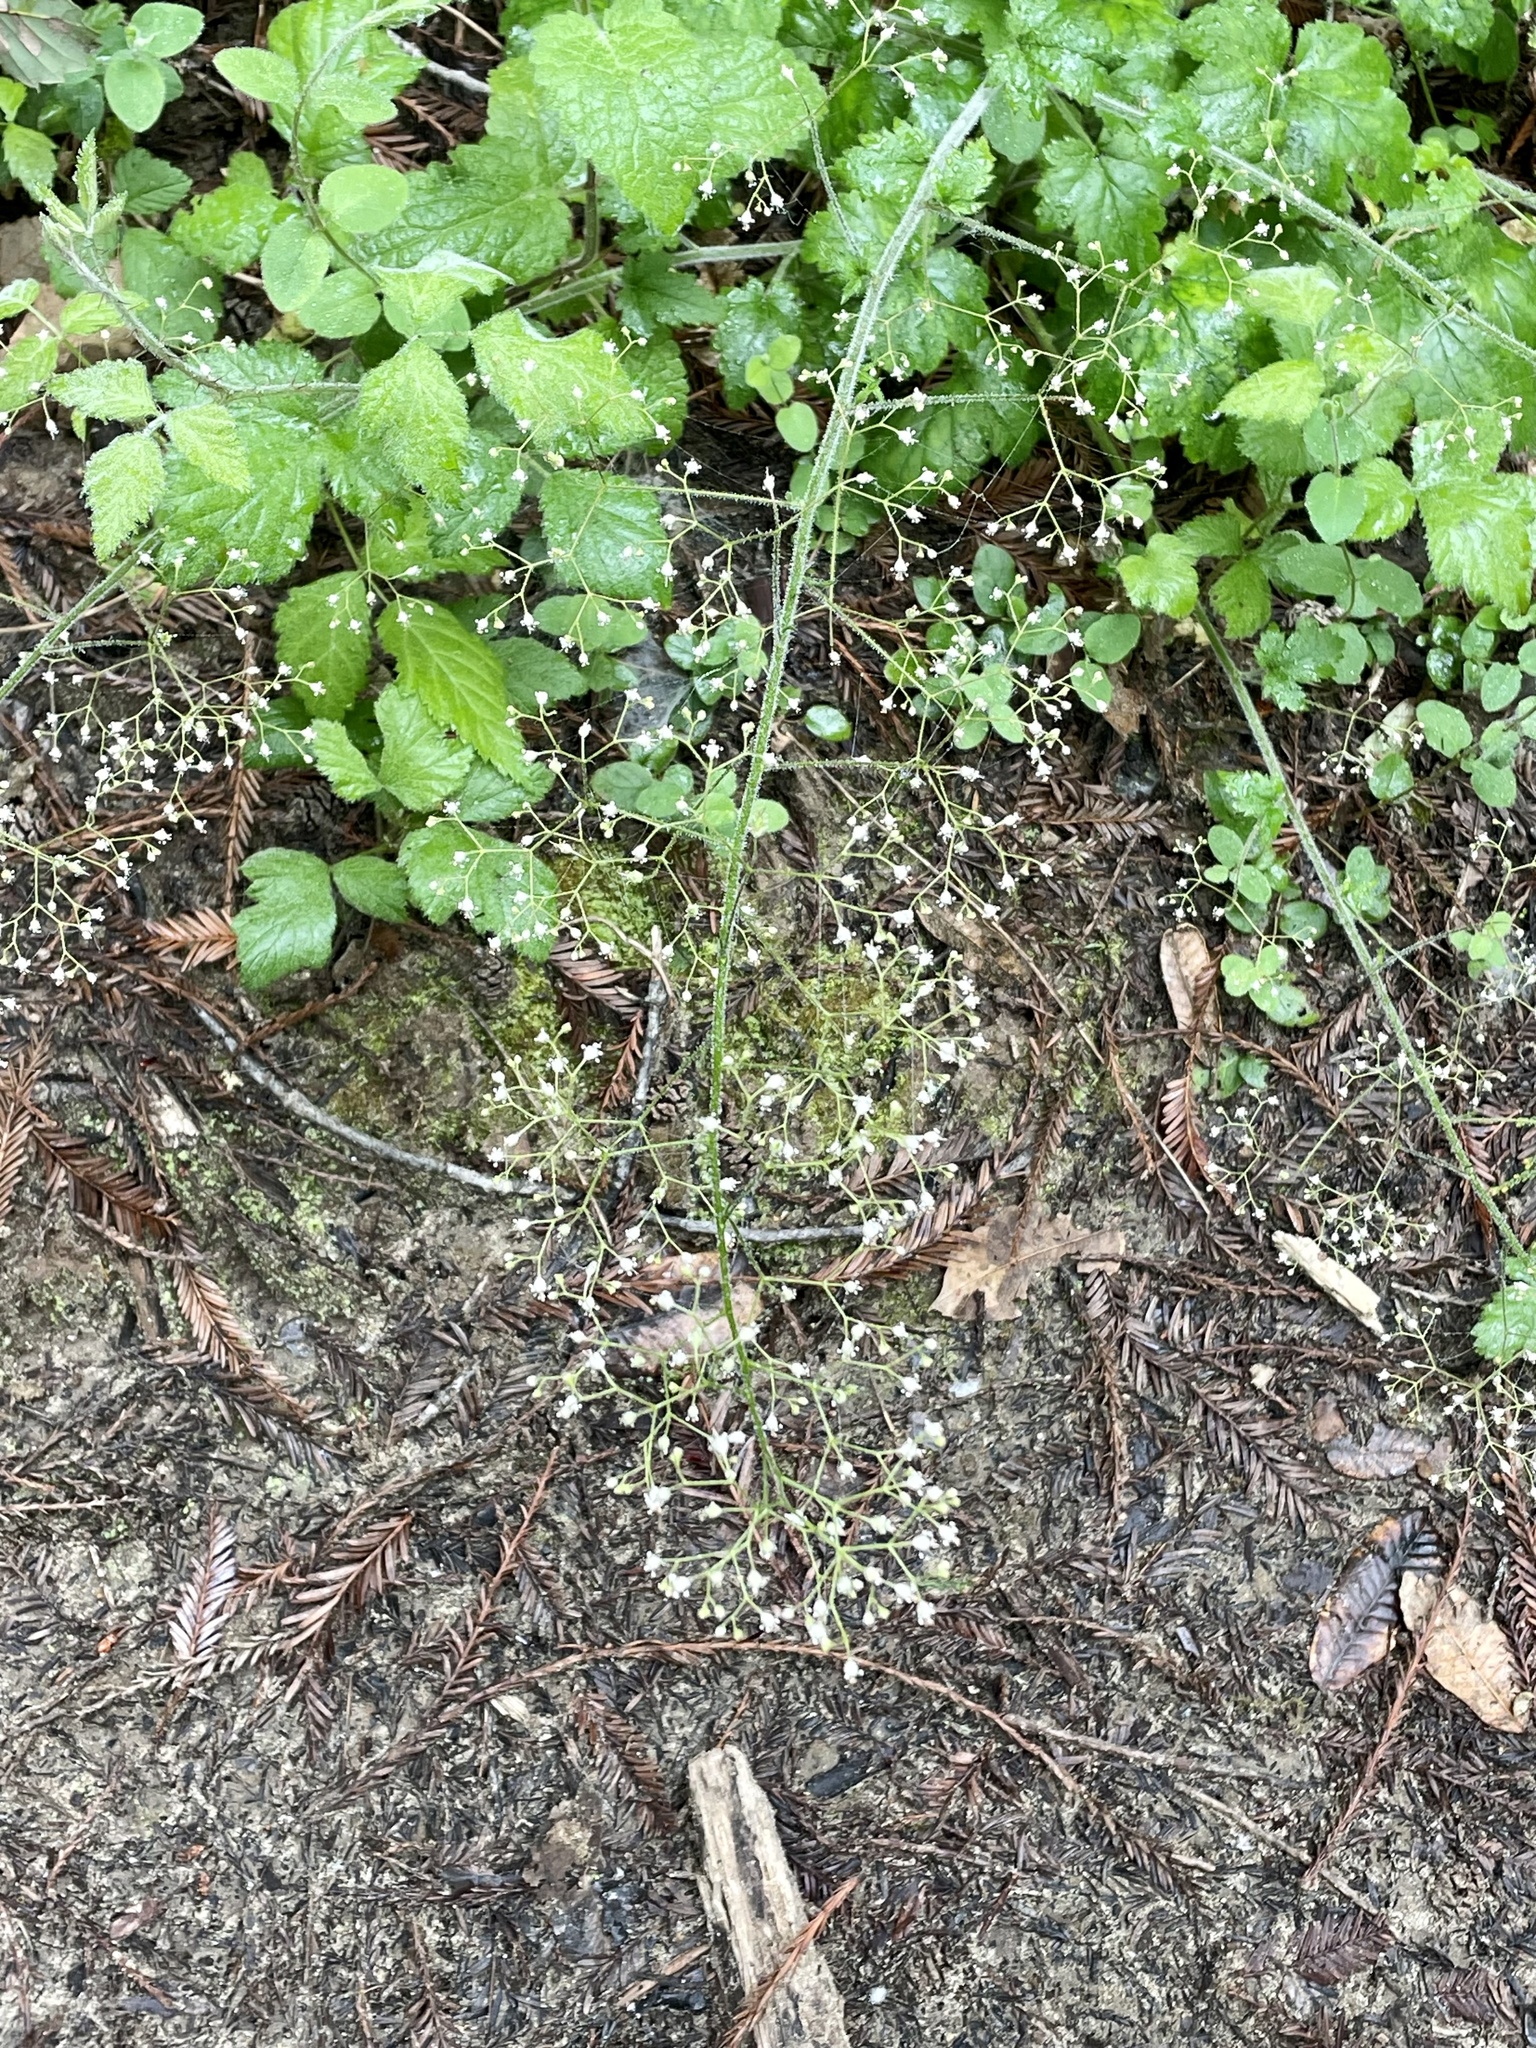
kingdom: Plantae
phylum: Tracheophyta
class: Magnoliopsida
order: Saxifragales
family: Saxifragaceae
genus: Heuchera
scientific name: Heuchera micrantha
